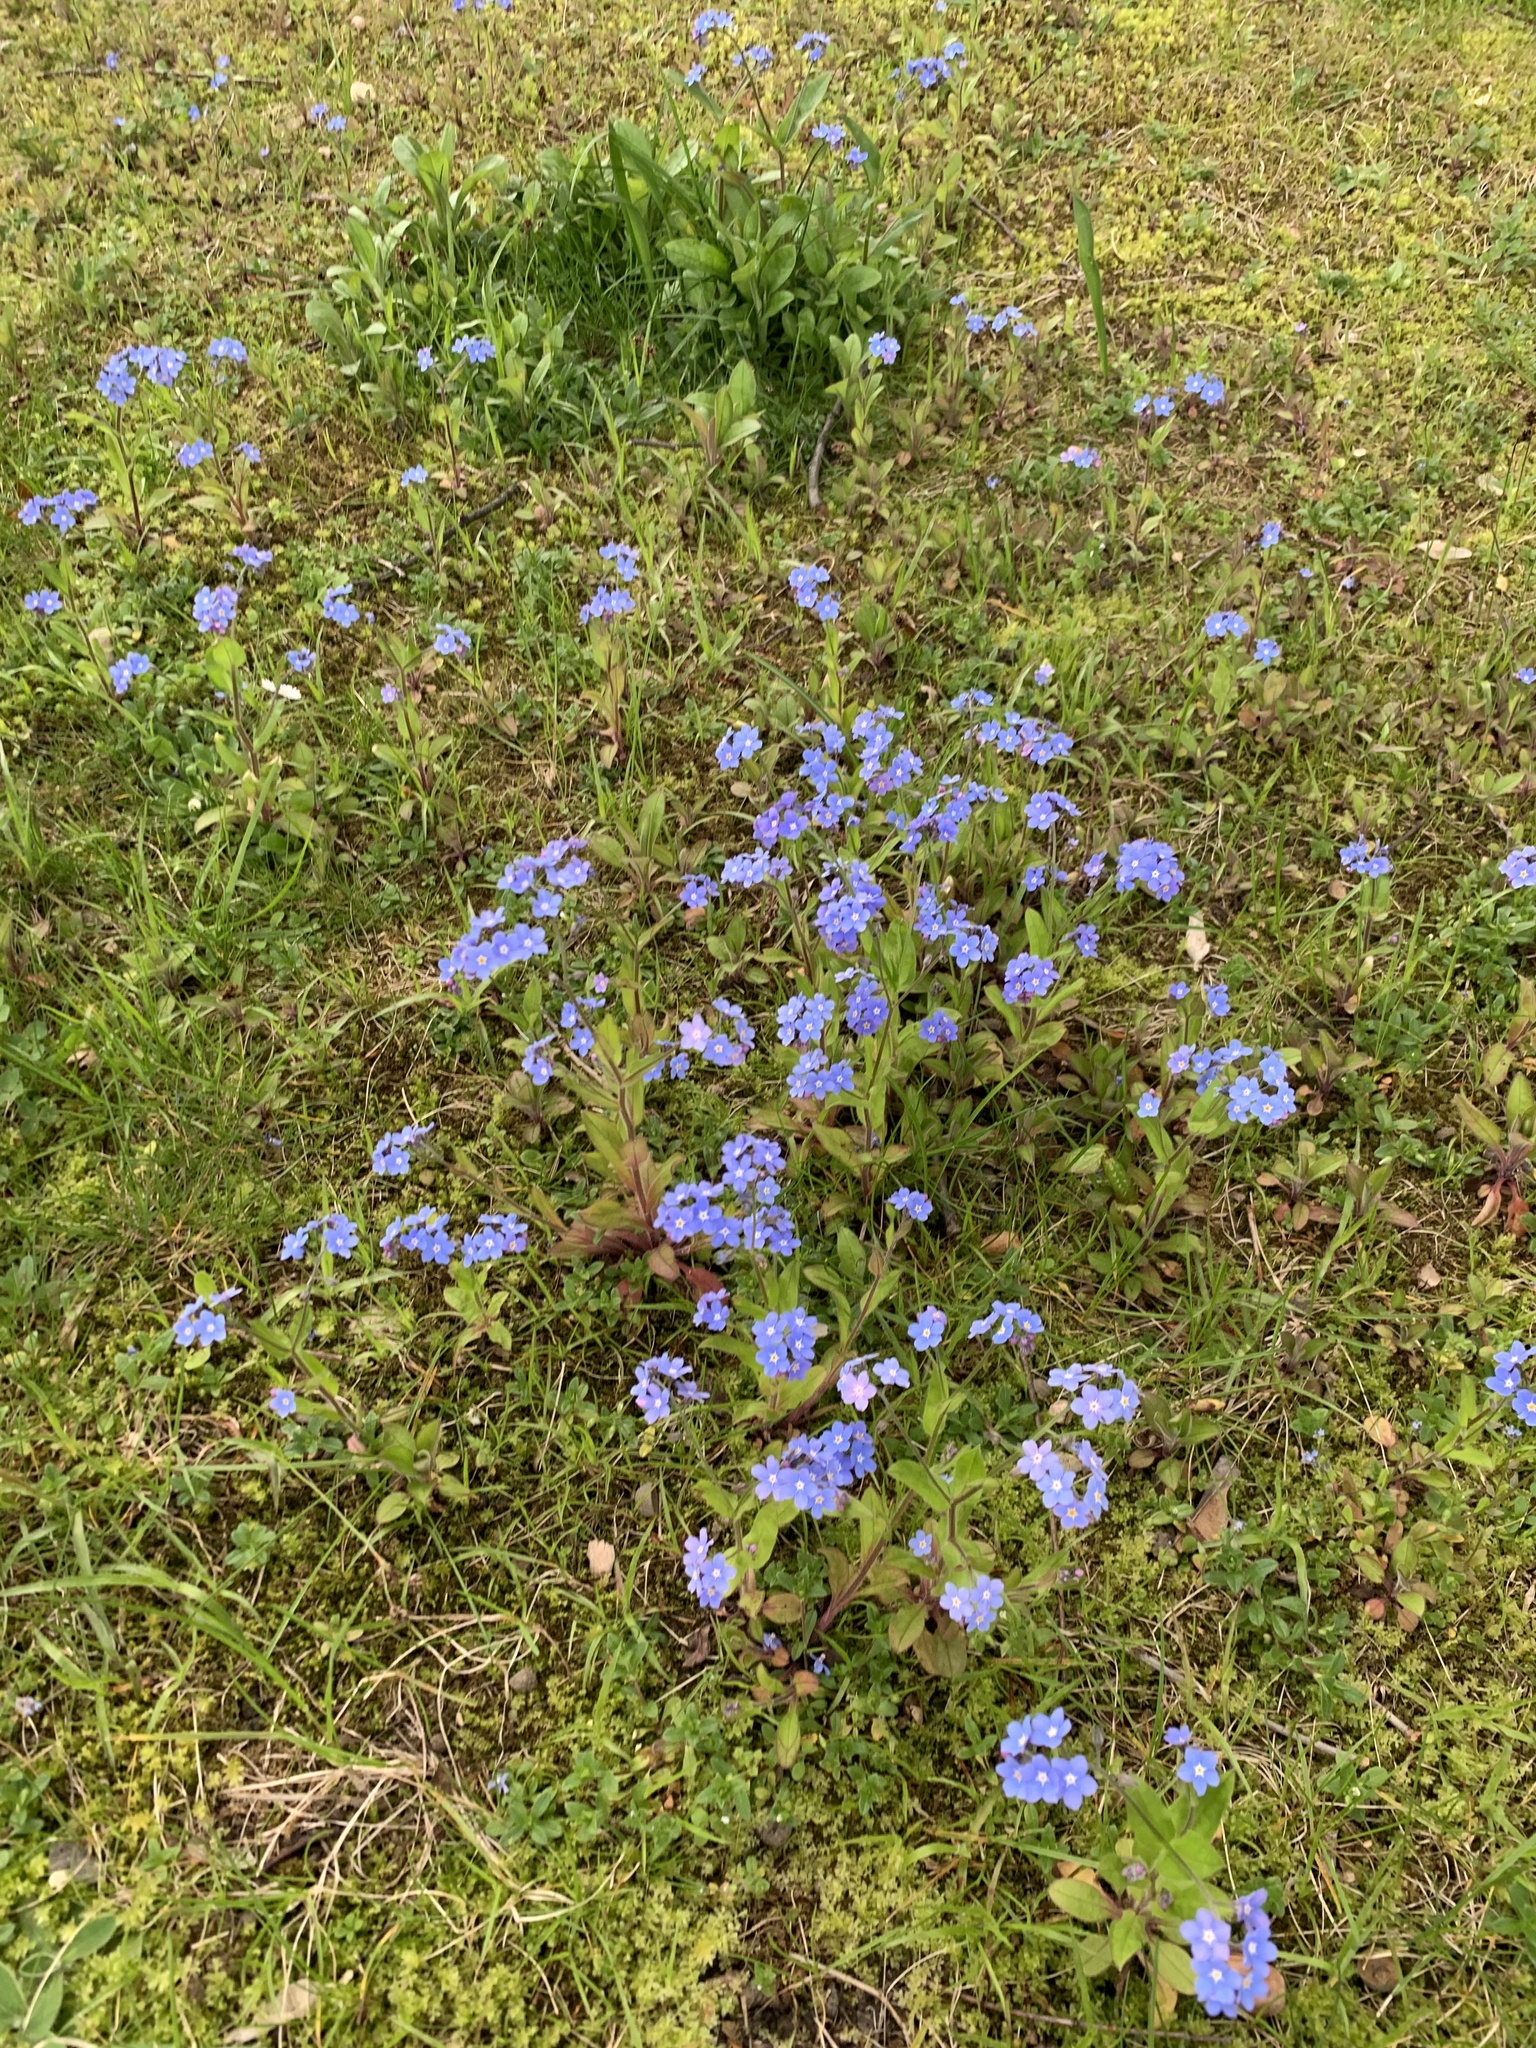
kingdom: Plantae
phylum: Tracheophyta
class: Magnoliopsida
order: Boraginales
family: Boraginaceae
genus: Myosotis
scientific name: Myosotis sylvatica
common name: Wood forget-me-not
